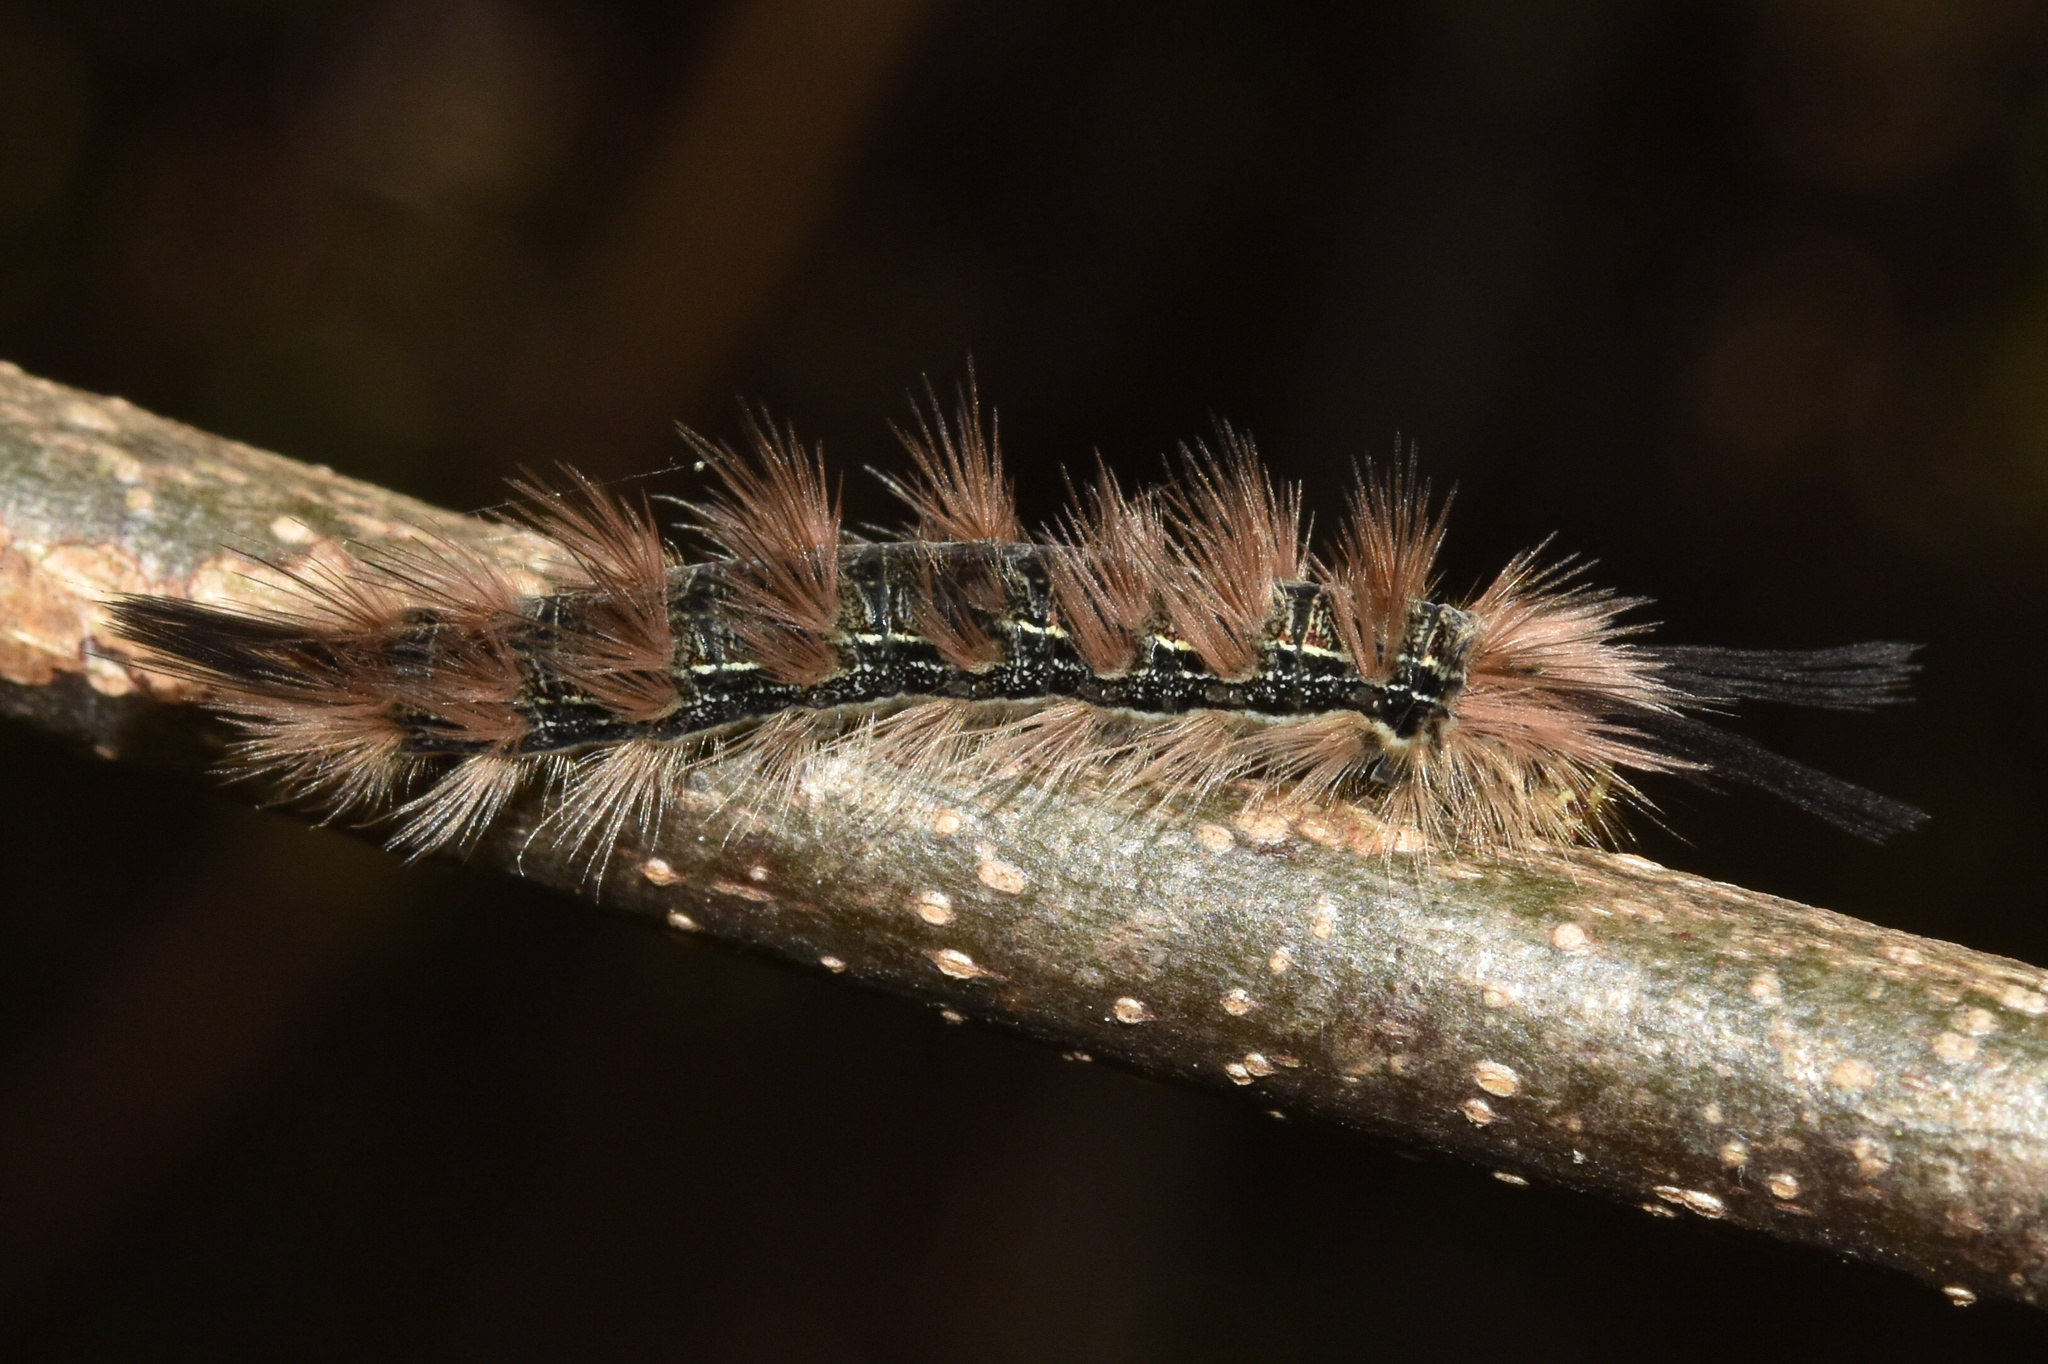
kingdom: Animalia
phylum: Arthropoda
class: Insecta
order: Lepidoptera
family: Eupterotidae
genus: Lichenopteryx
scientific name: Lichenopteryx despecta
